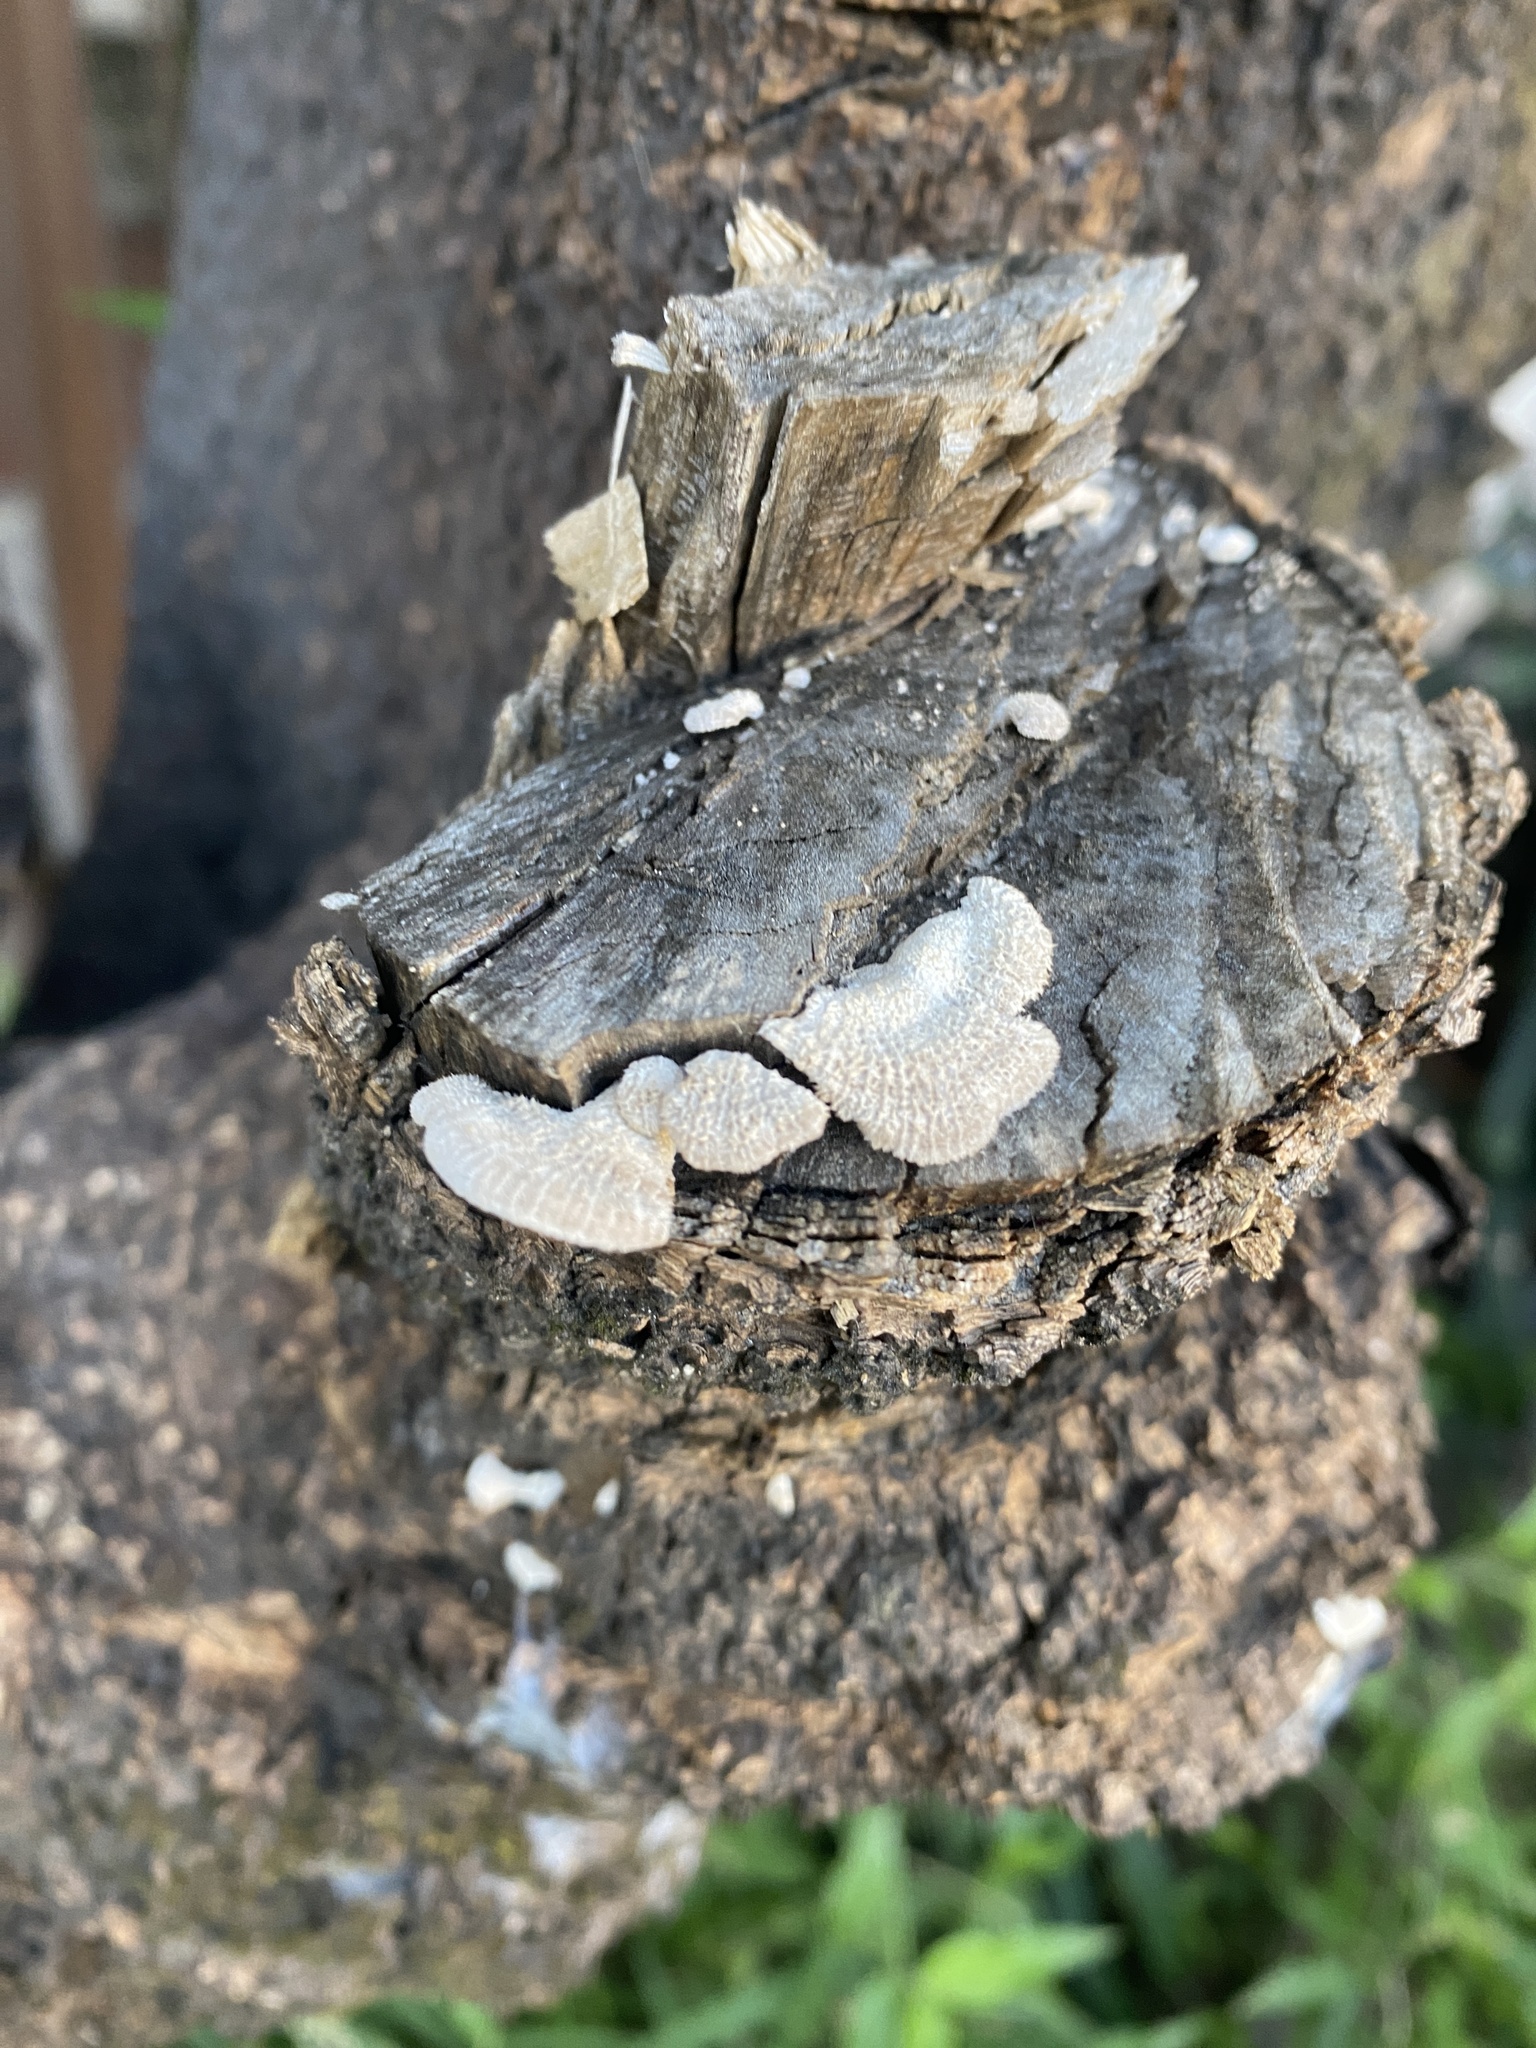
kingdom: Fungi
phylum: Basidiomycota
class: Agaricomycetes
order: Agaricales
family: Schizophyllaceae
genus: Schizophyllum
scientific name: Schizophyllum commune
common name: Common porecrust
